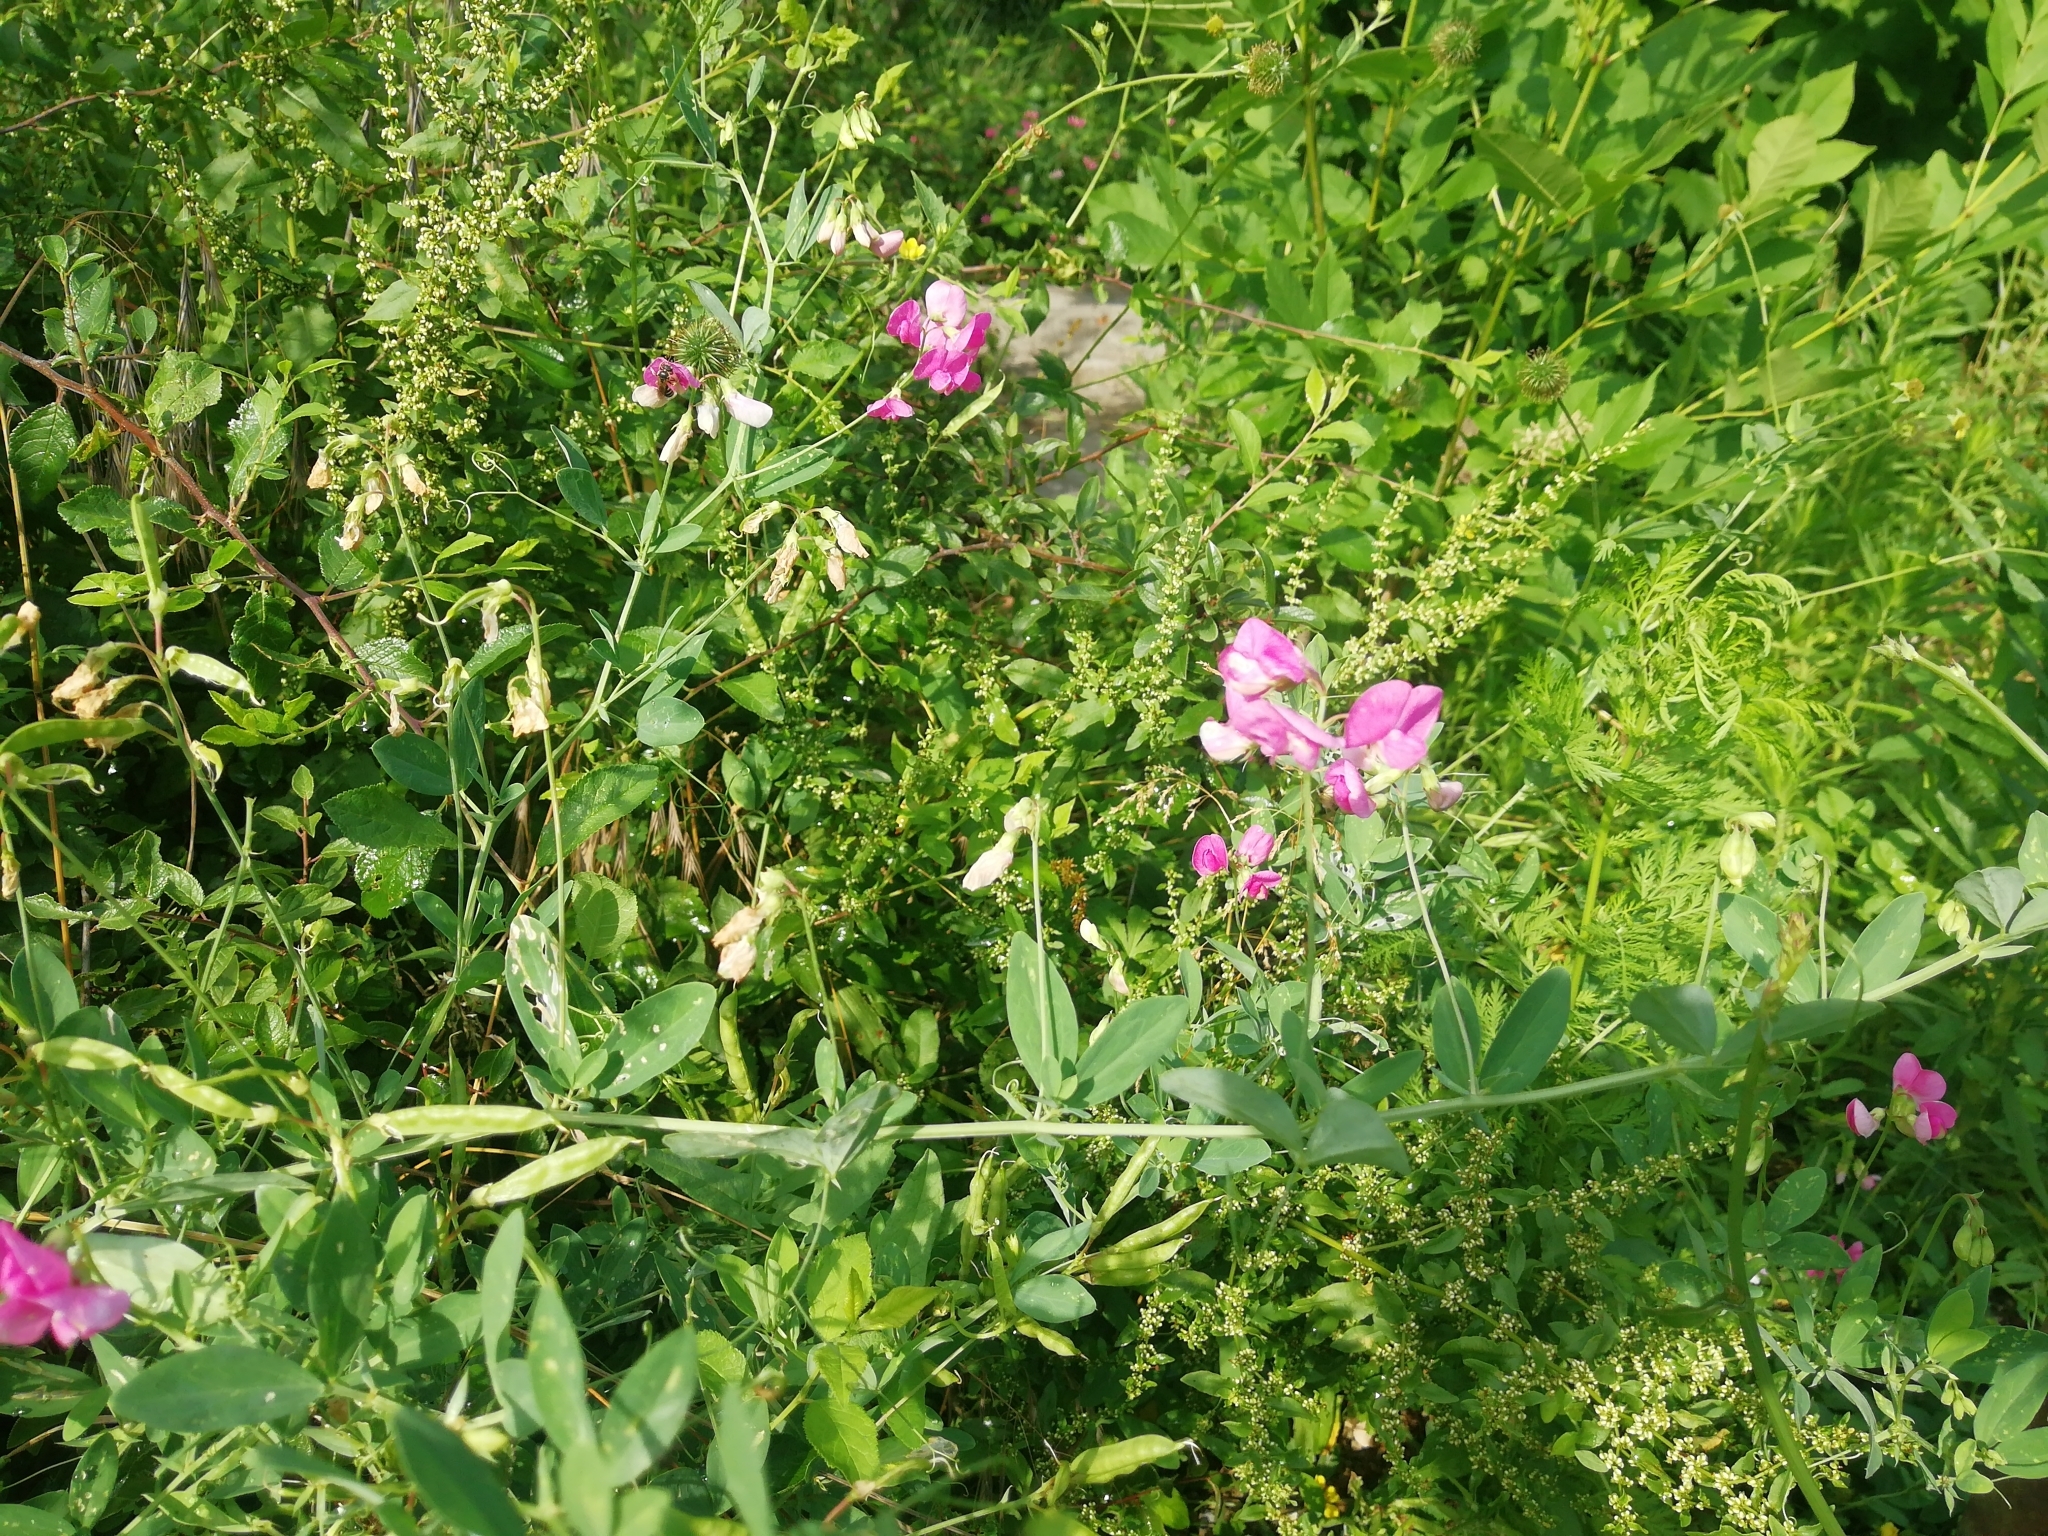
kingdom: Plantae
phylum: Tracheophyta
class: Magnoliopsida
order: Fabales
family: Fabaceae
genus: Lathyrus
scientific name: Lathyrus tuberosus
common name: Tuberous pea
